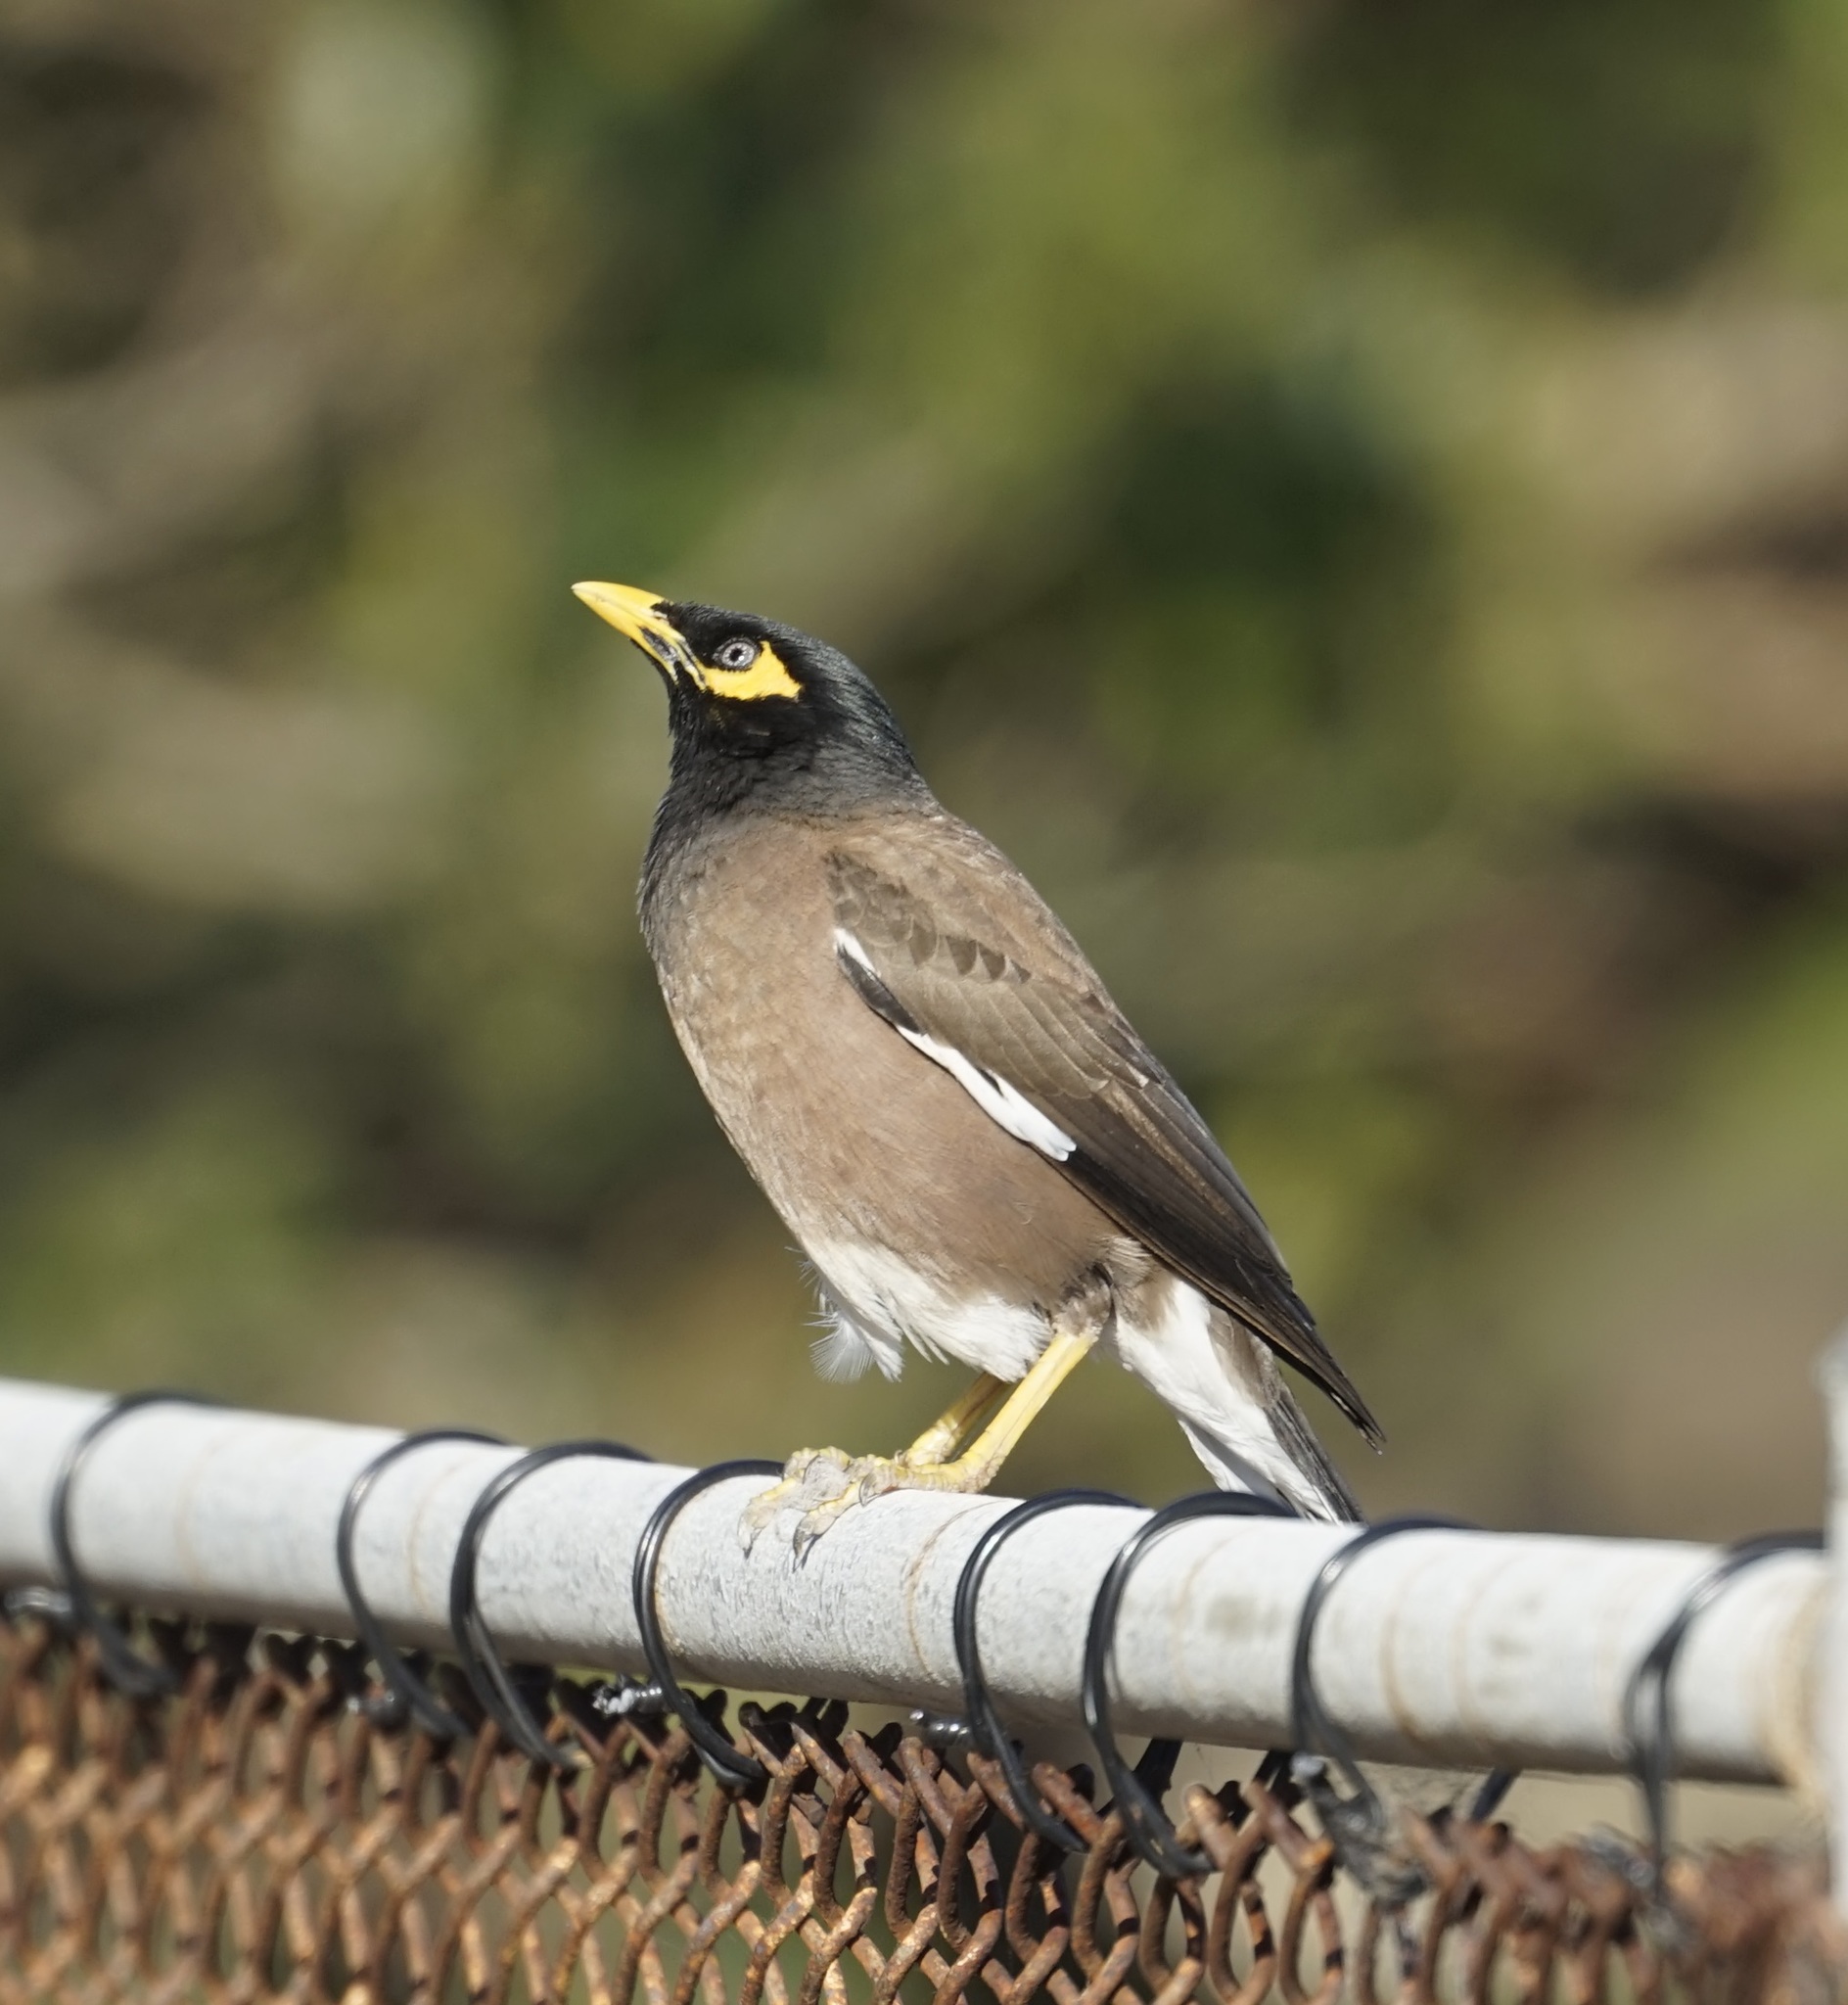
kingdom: Animalia
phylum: Chordata
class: Aves
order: Passeriformes
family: Sturnidae
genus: Acridotheres
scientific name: Acridotheres tristis
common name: Common myna
